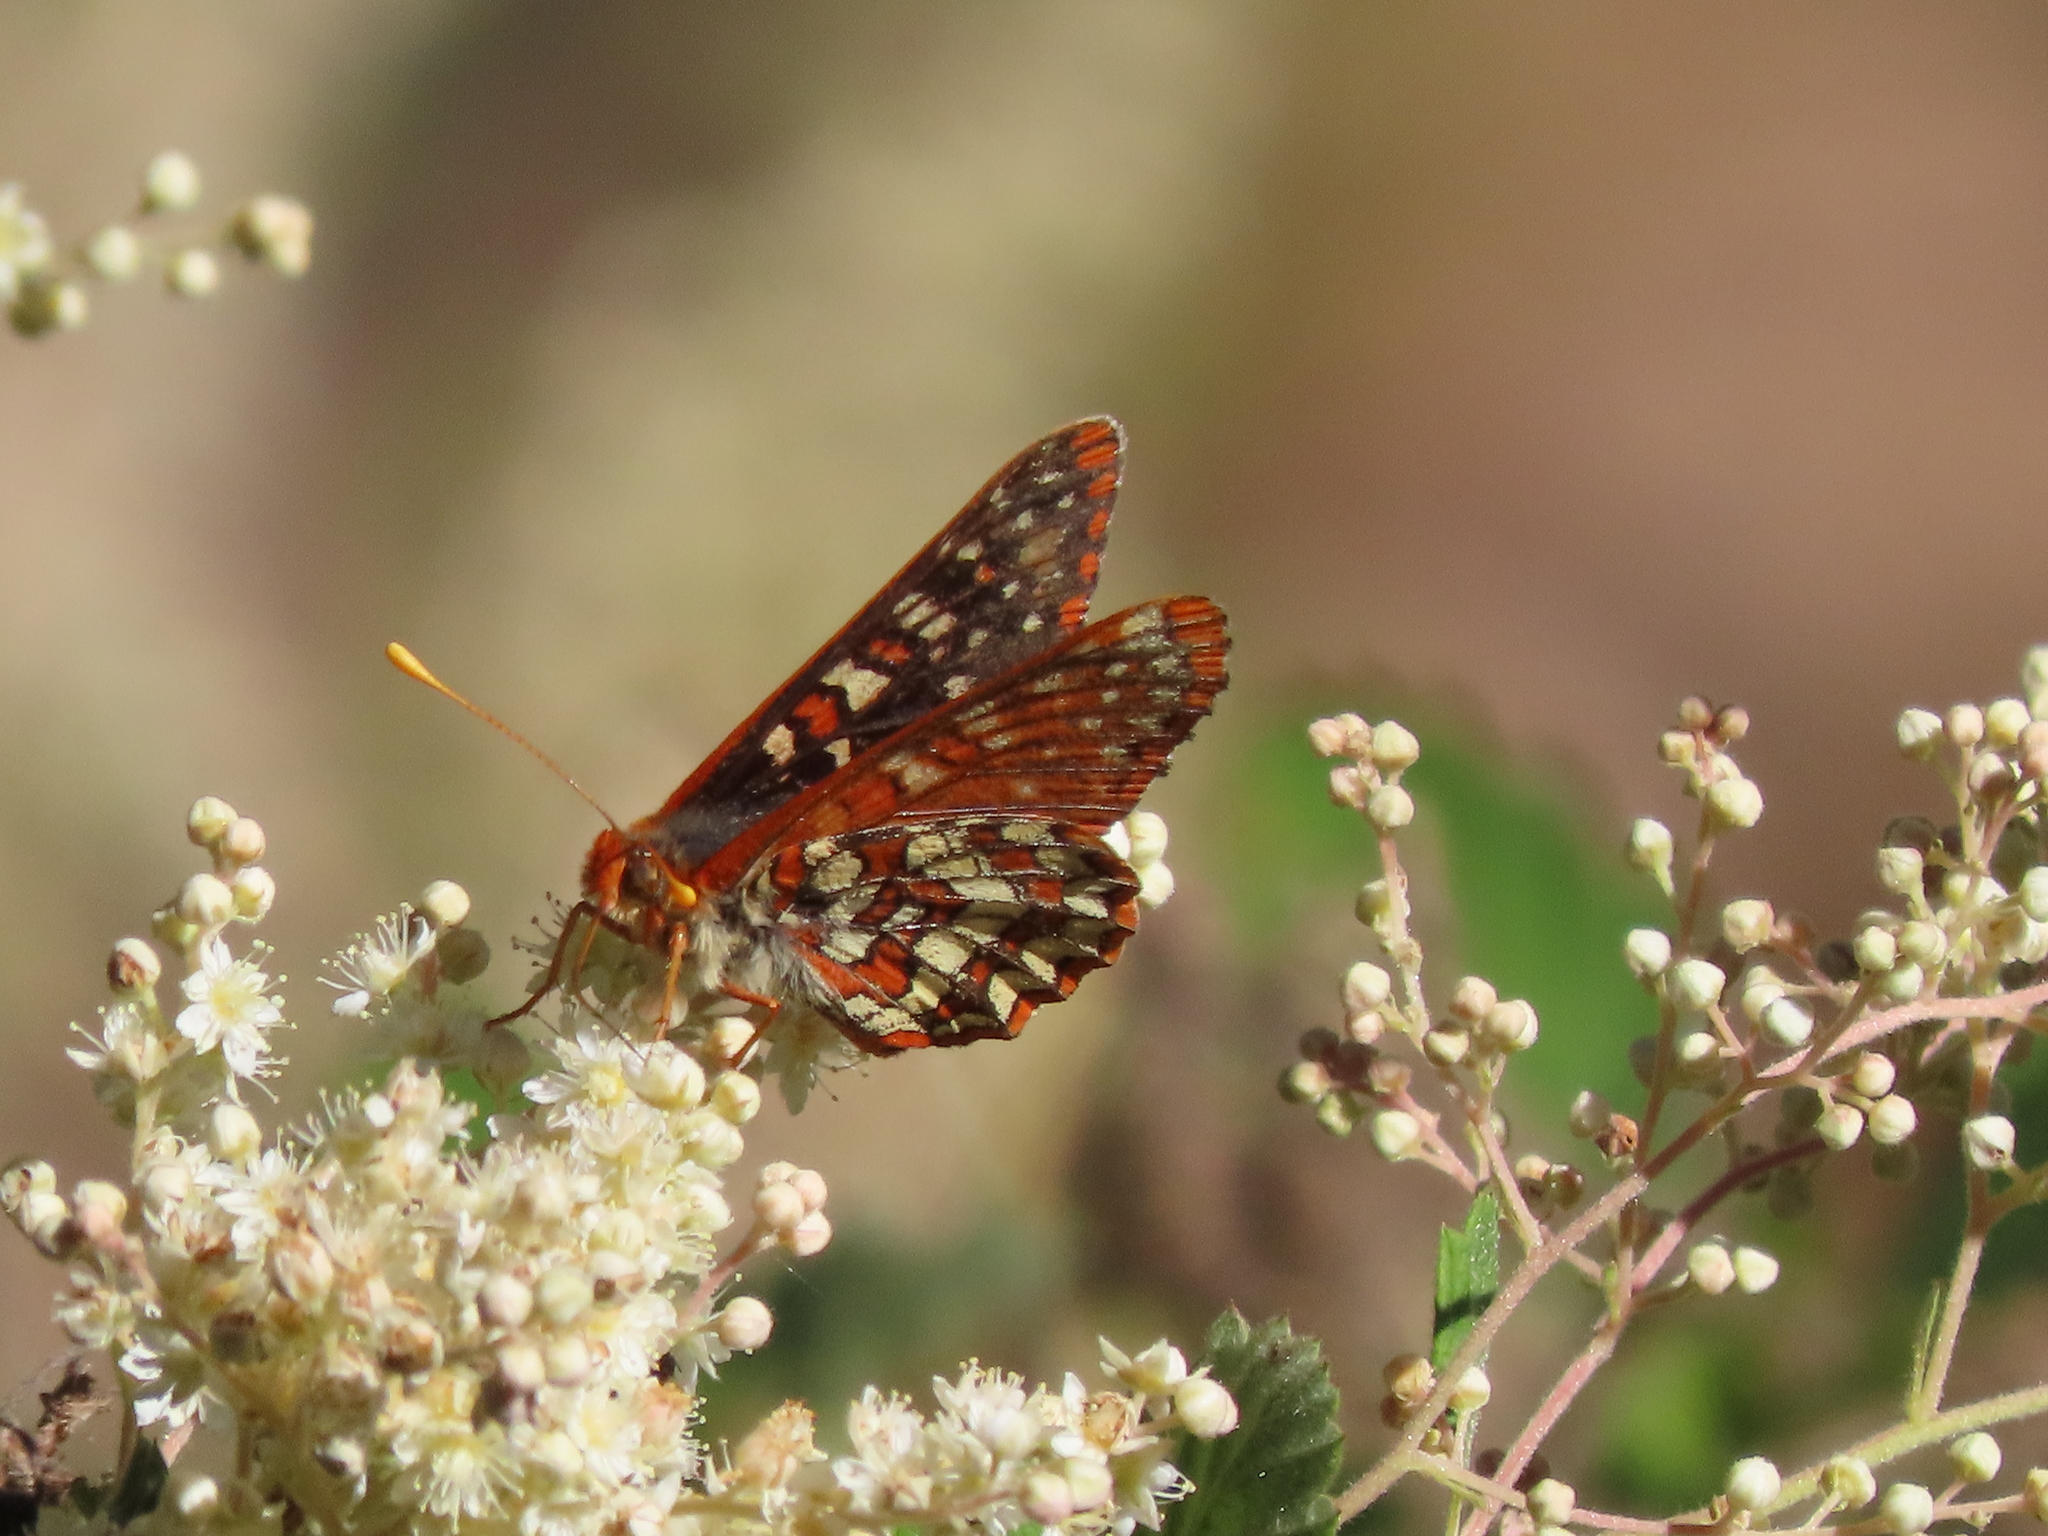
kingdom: Animalia
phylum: Arthropoda
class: Insecta
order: Lepidoptera
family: Nymphalidae
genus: Occidryas
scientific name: Occidryas chalcedona
